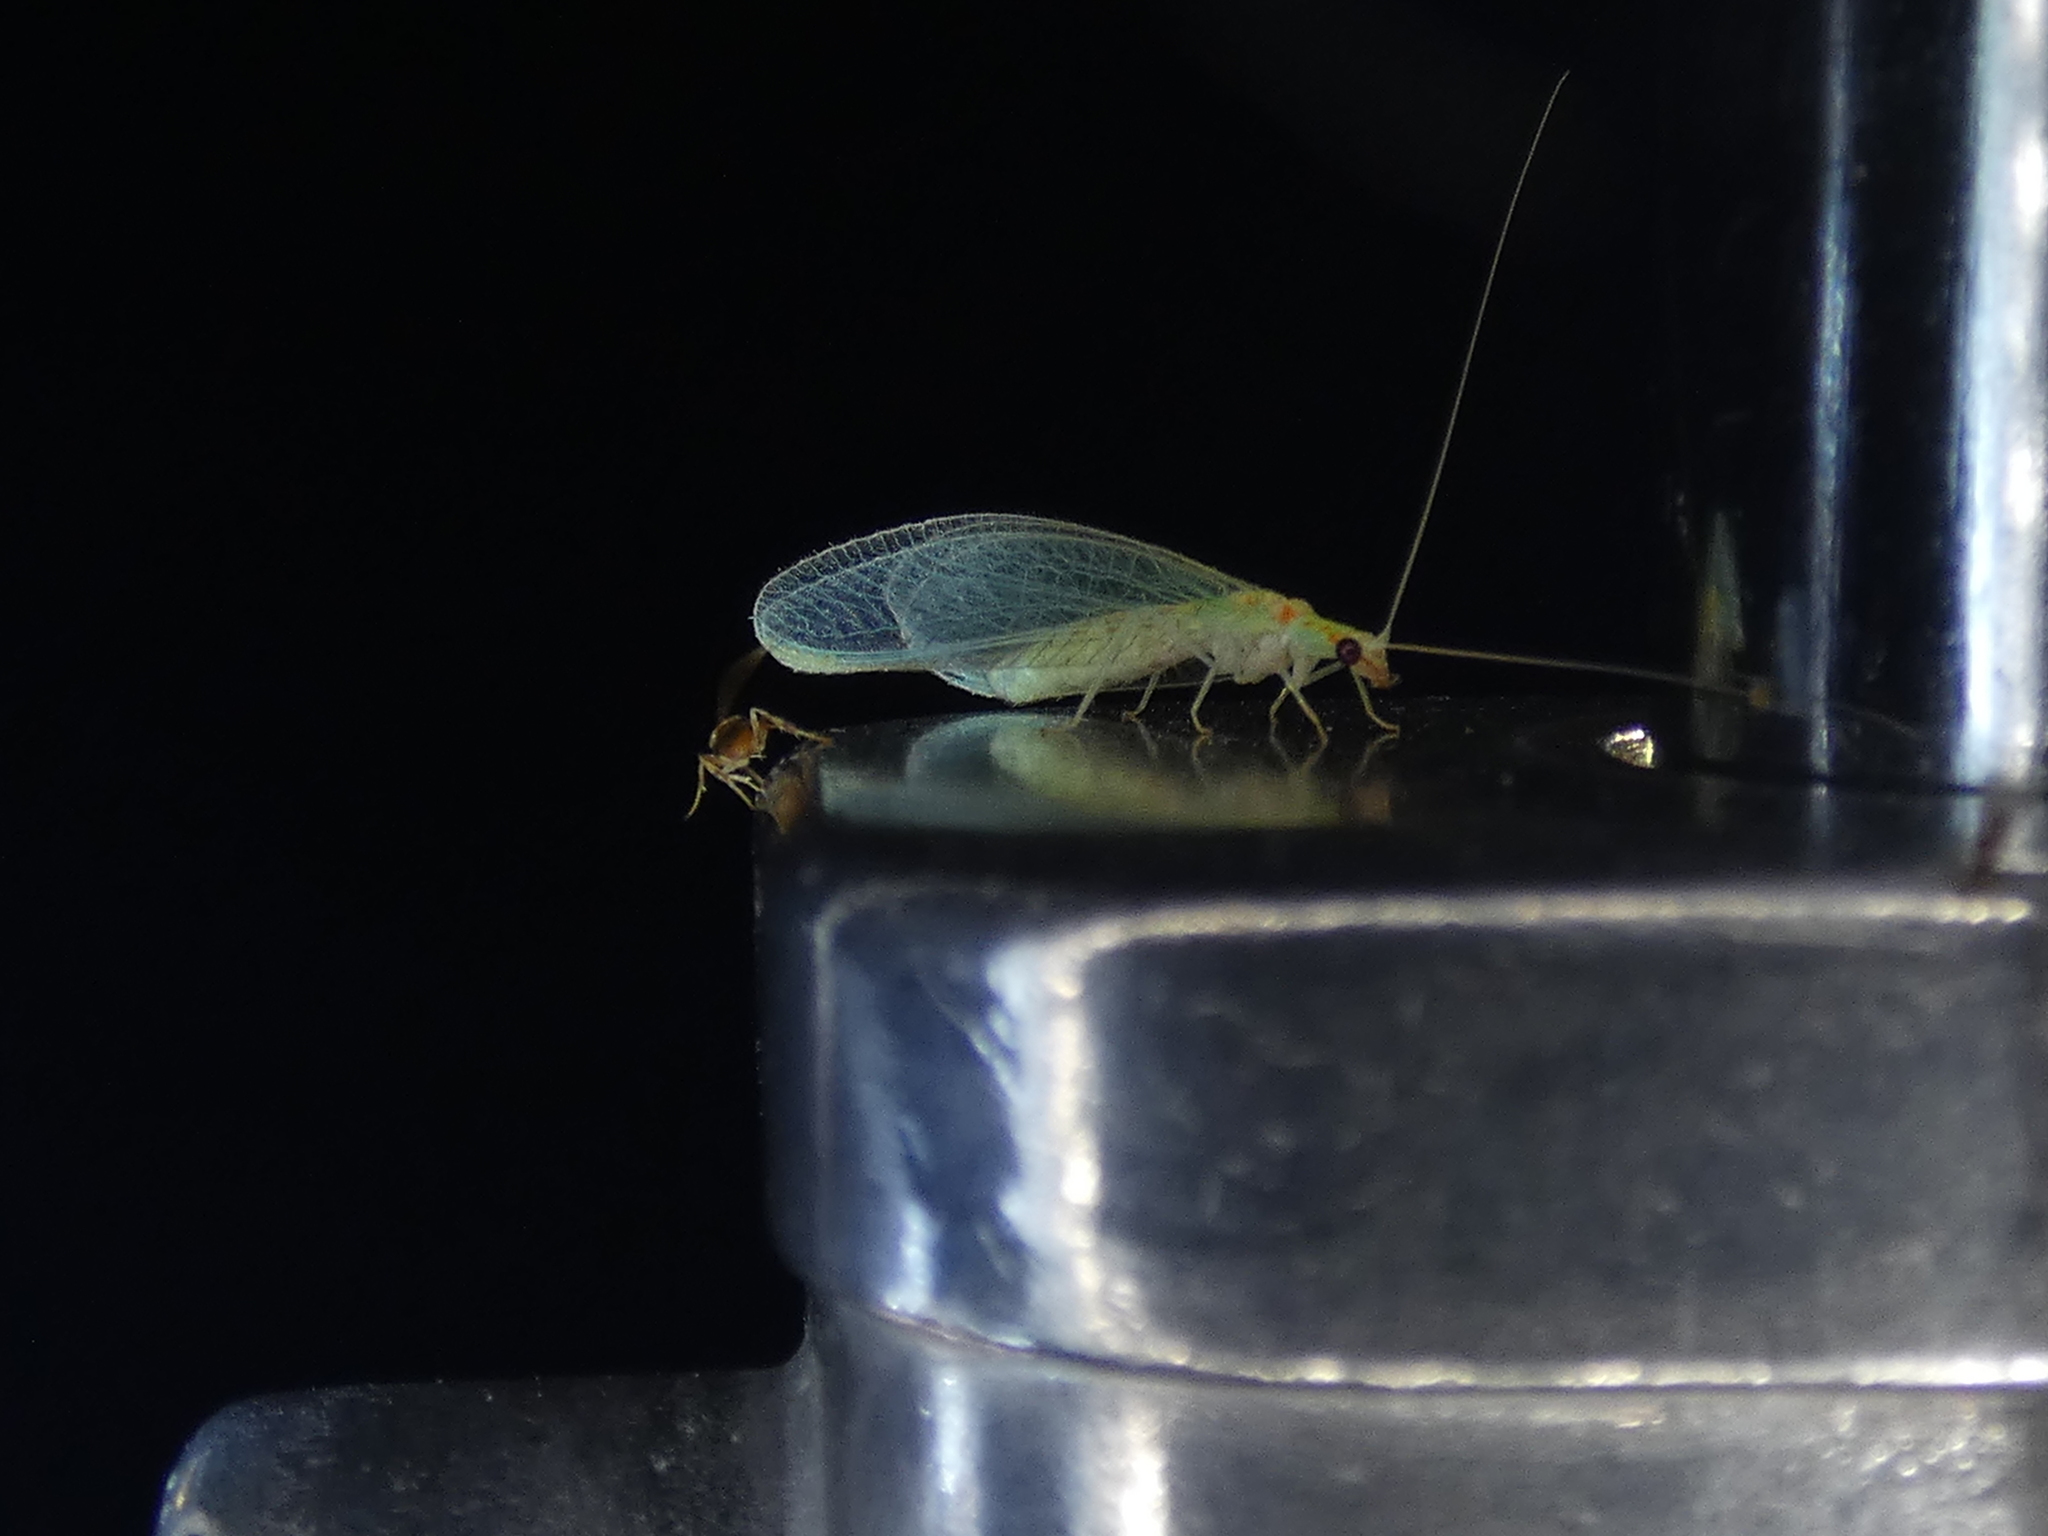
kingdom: Animalia
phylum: Arthropoda
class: Insecta
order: Neuroptera
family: Chrysopidae
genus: Chrysopa
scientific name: Chrysopa quadripunctata
